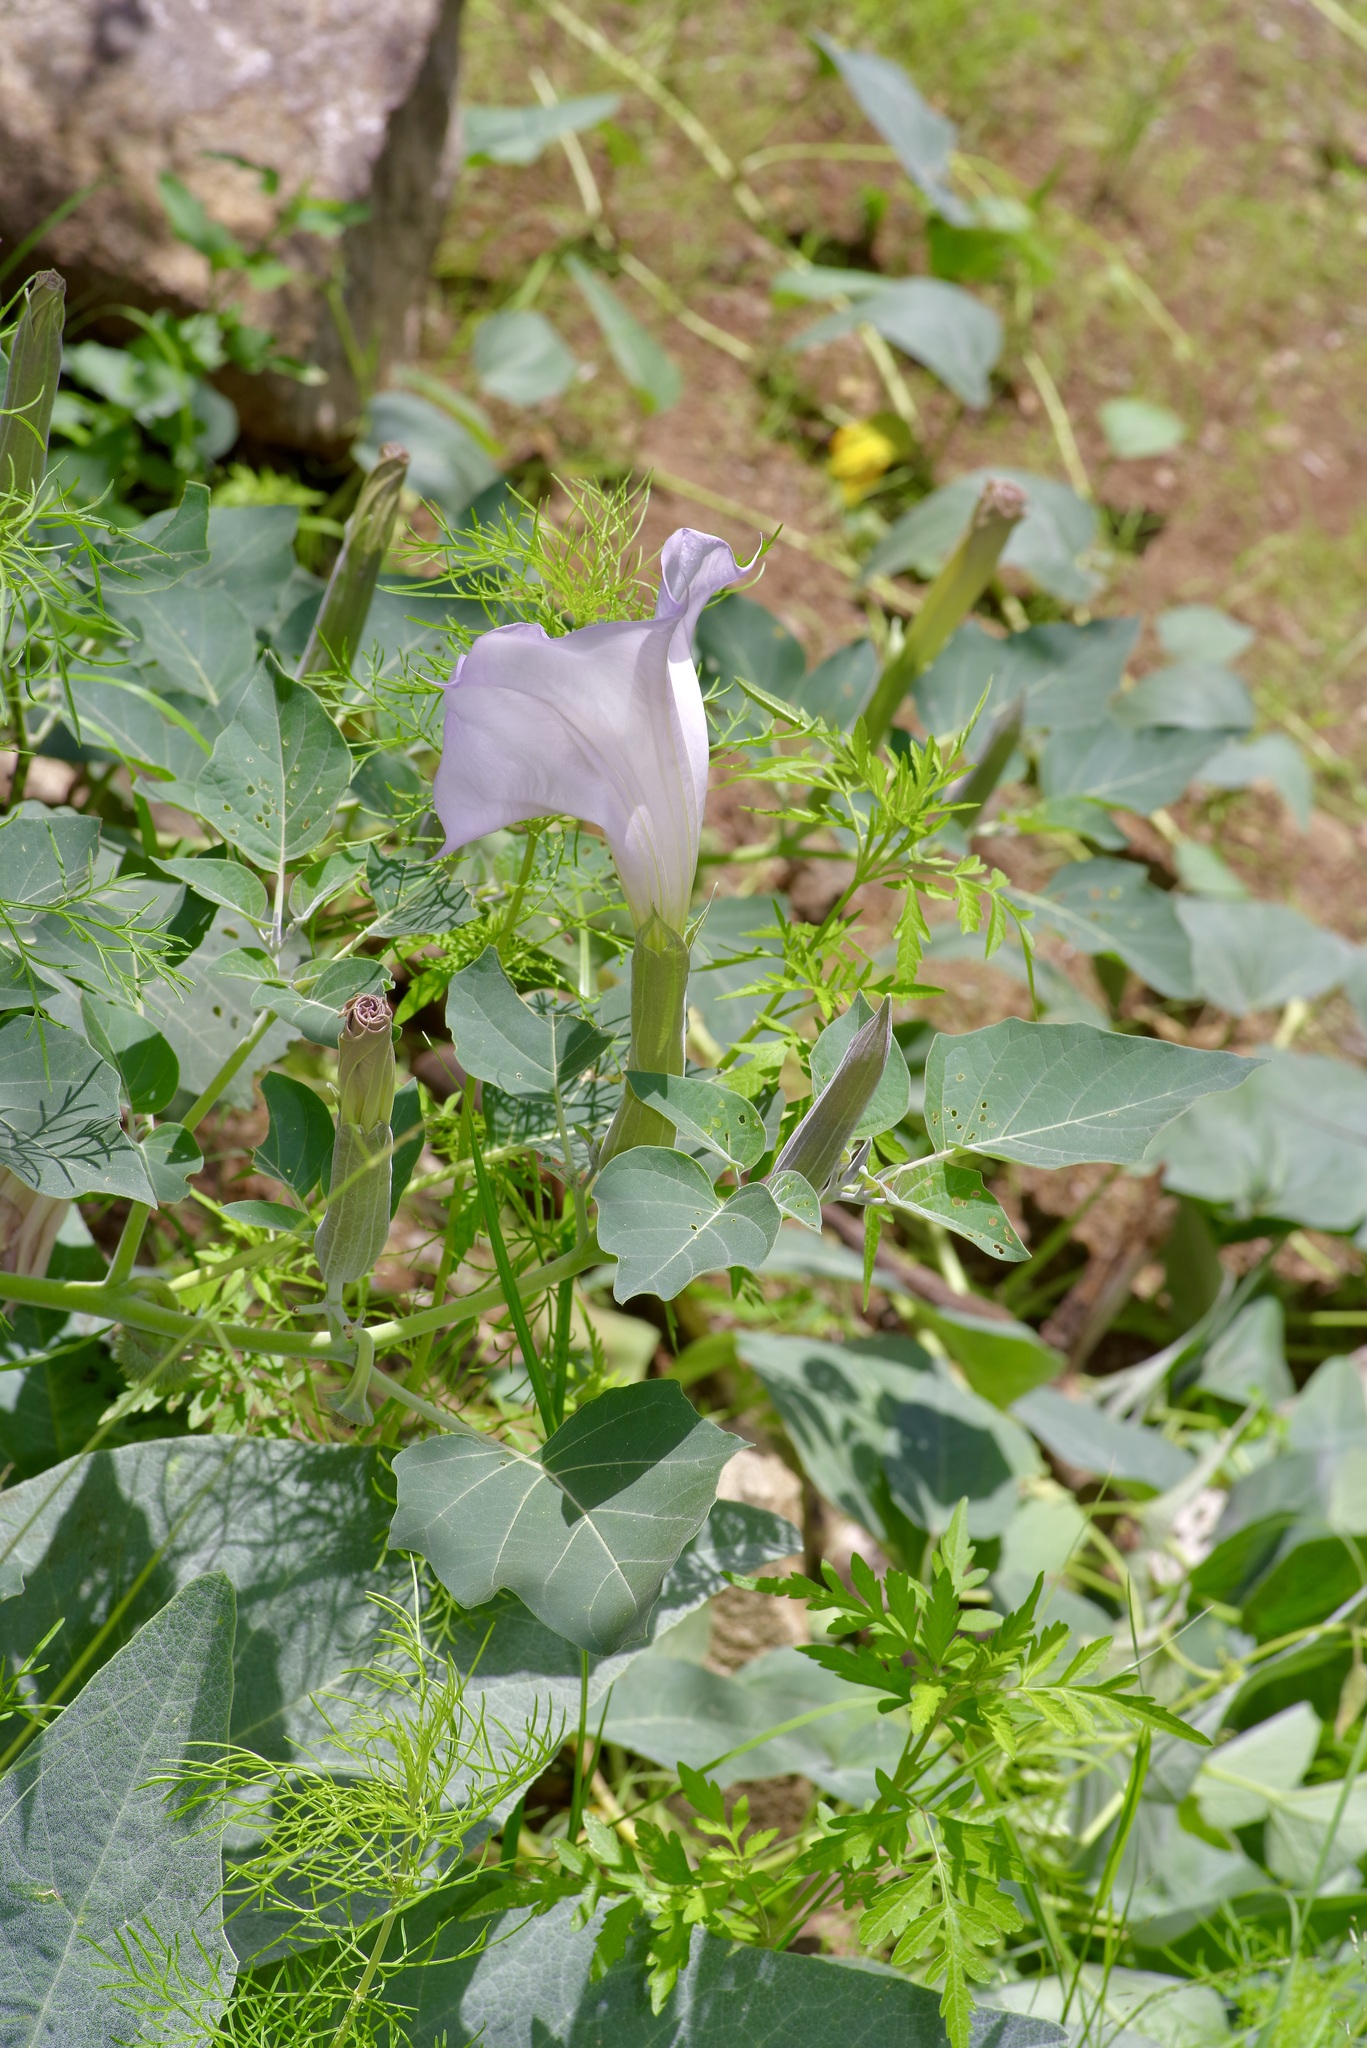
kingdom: Plantae
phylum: Tracheophyta
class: Magnoliopsida
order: Solanales
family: Solanaceae
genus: Datura
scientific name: Datura wrightii
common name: Sacred thorn-apple
